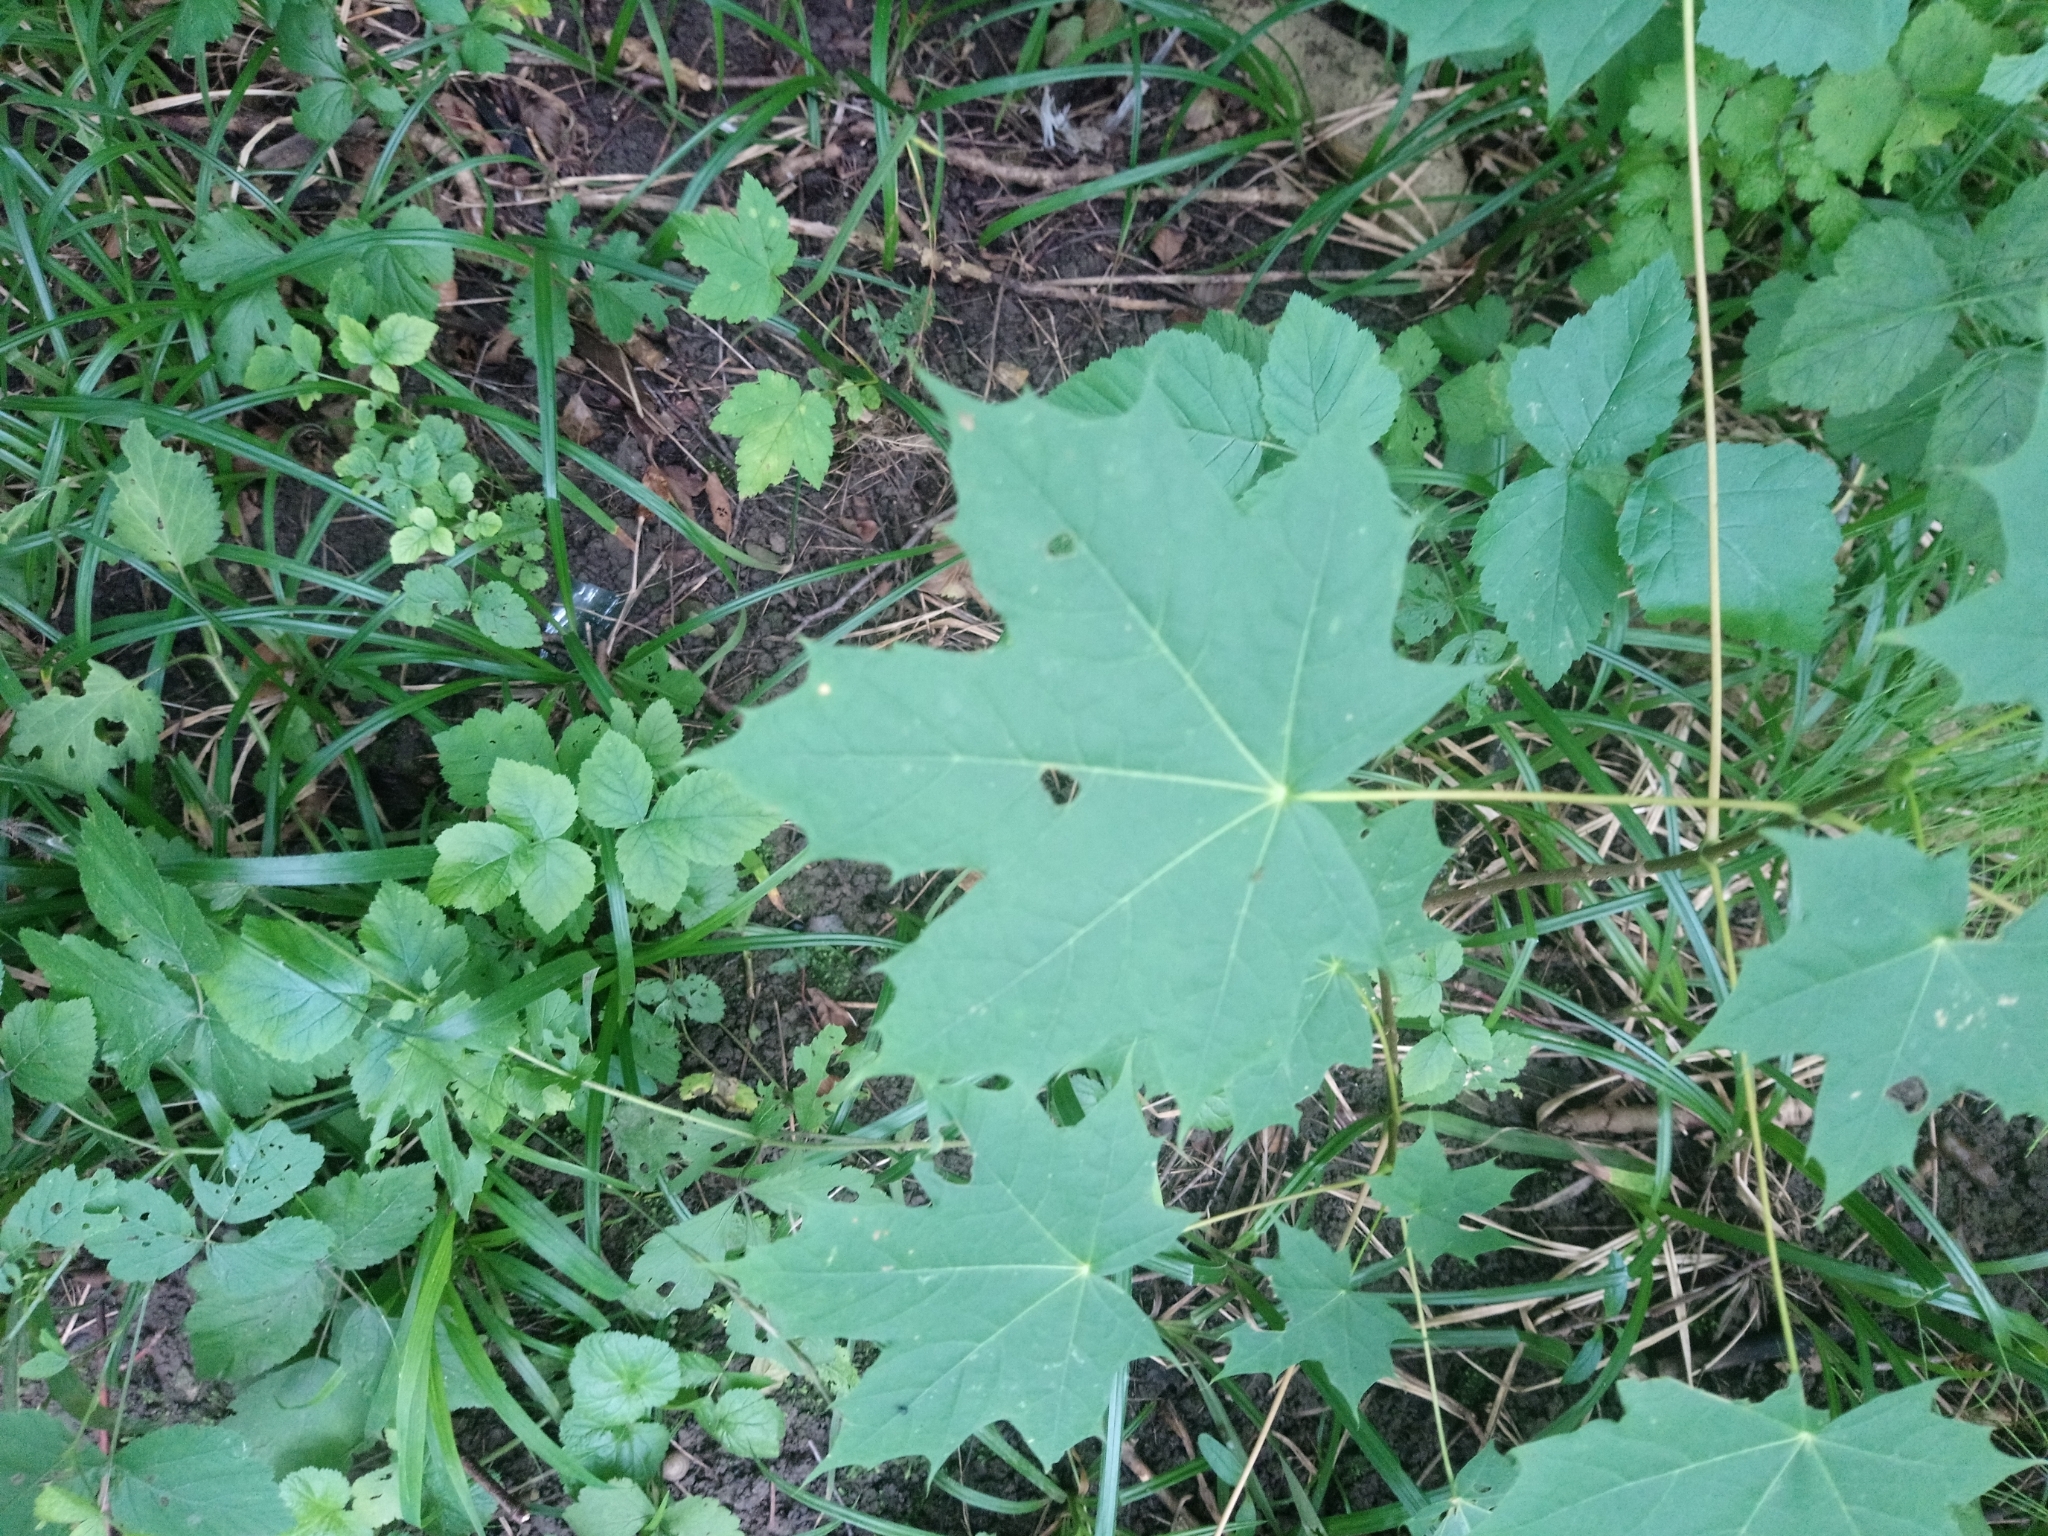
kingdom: Plantae
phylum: Tracheophyta
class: Magnoliopsida
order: Sapindales
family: Sapindaceae
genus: Acer
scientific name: Acer platanoides
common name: Norway maple
